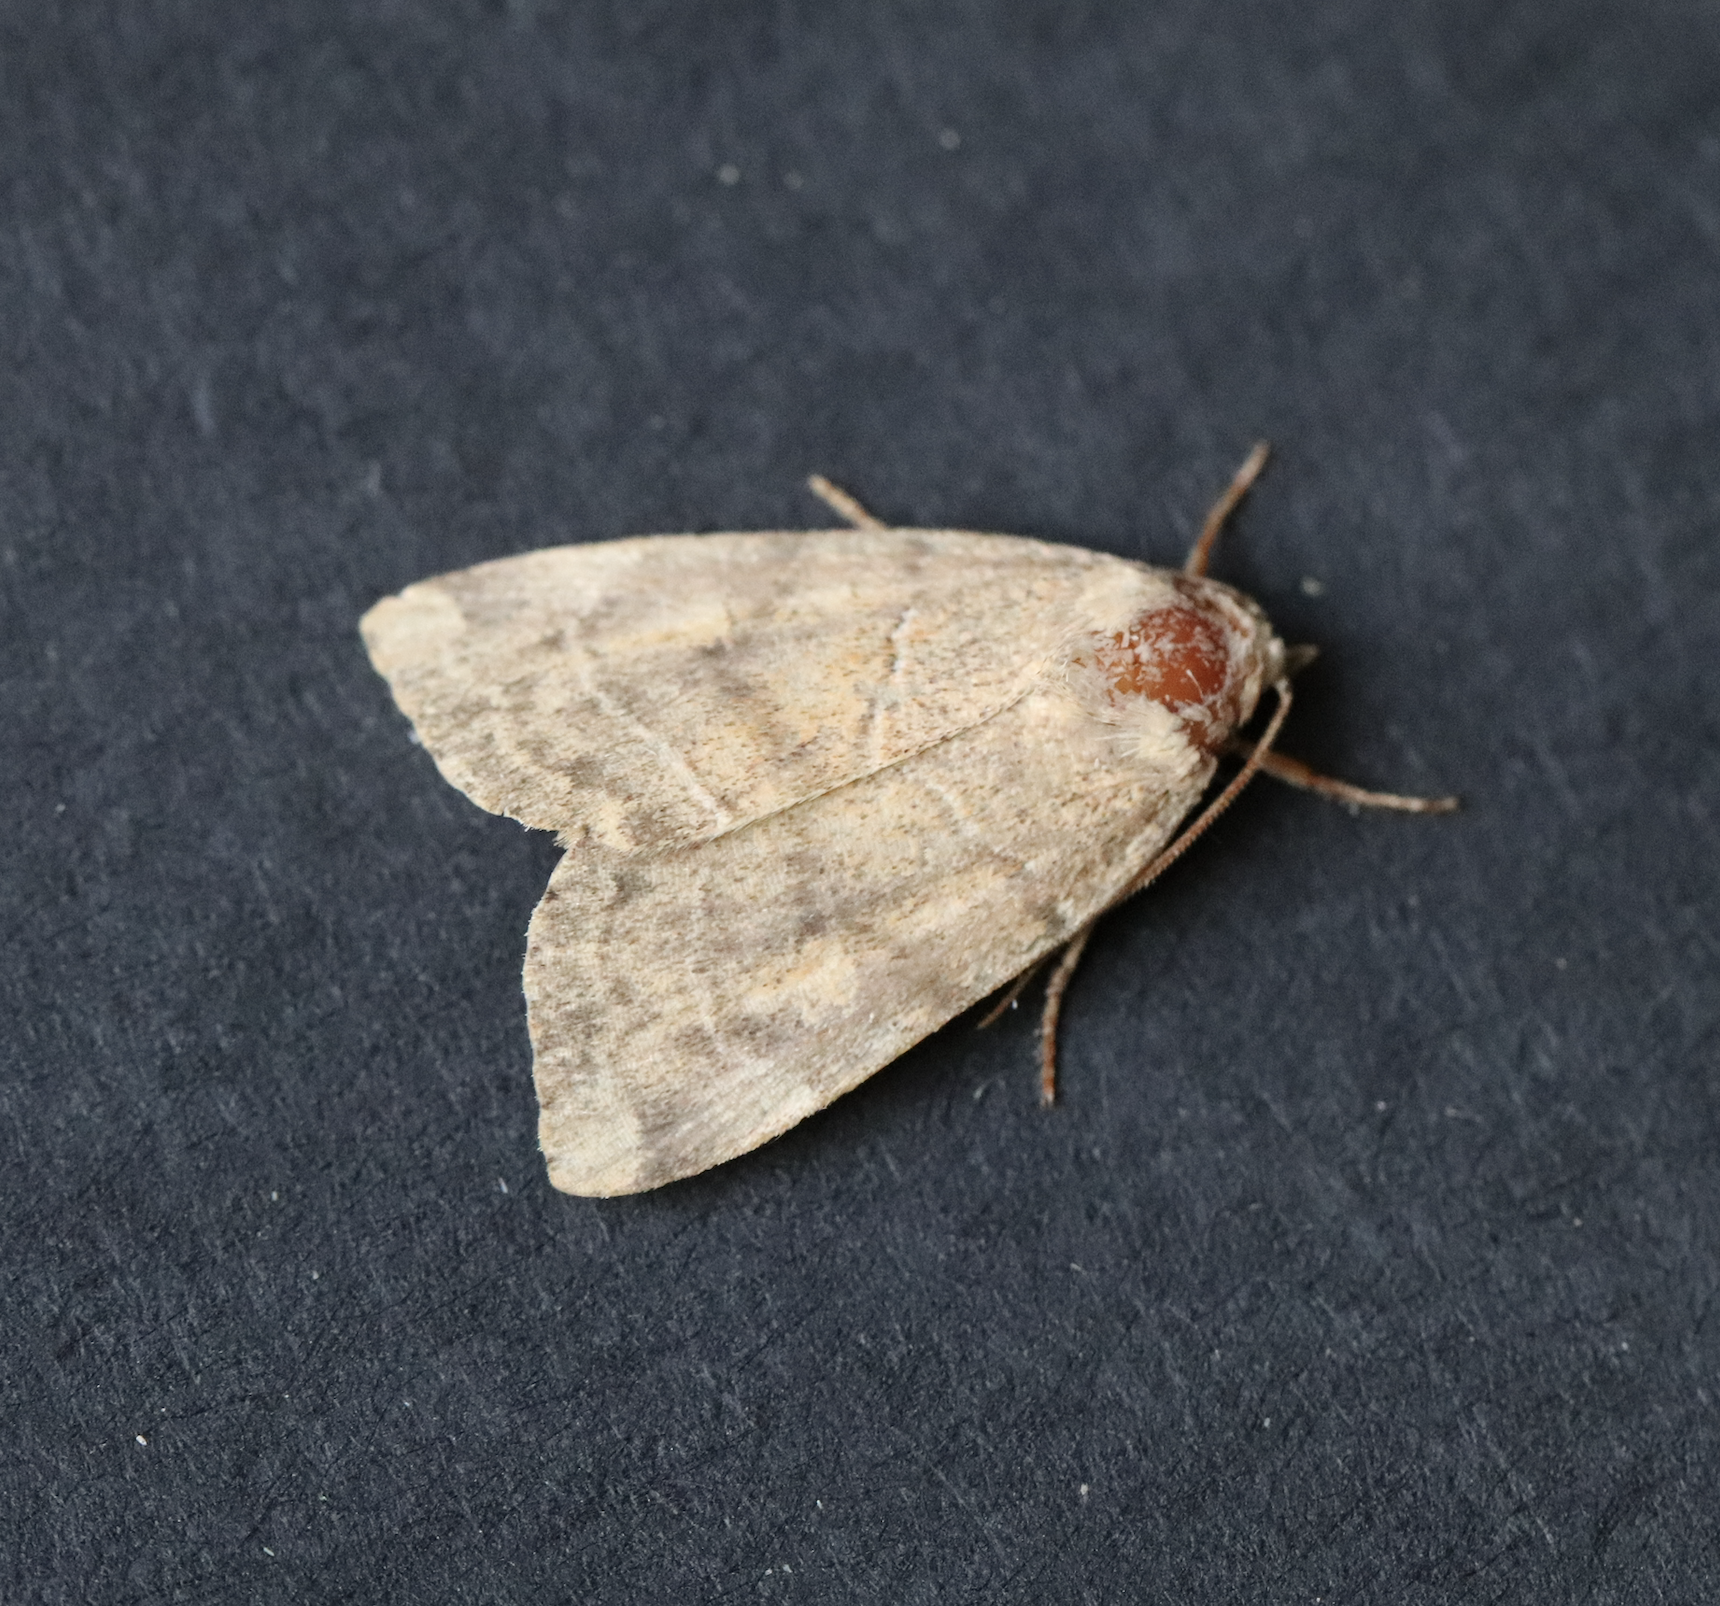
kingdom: Animalia
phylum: Arthropoda
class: Insecta
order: Lepidoptera
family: Noctuidae
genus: Cosmia
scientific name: Cosmia trapezina
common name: Dun-bar
